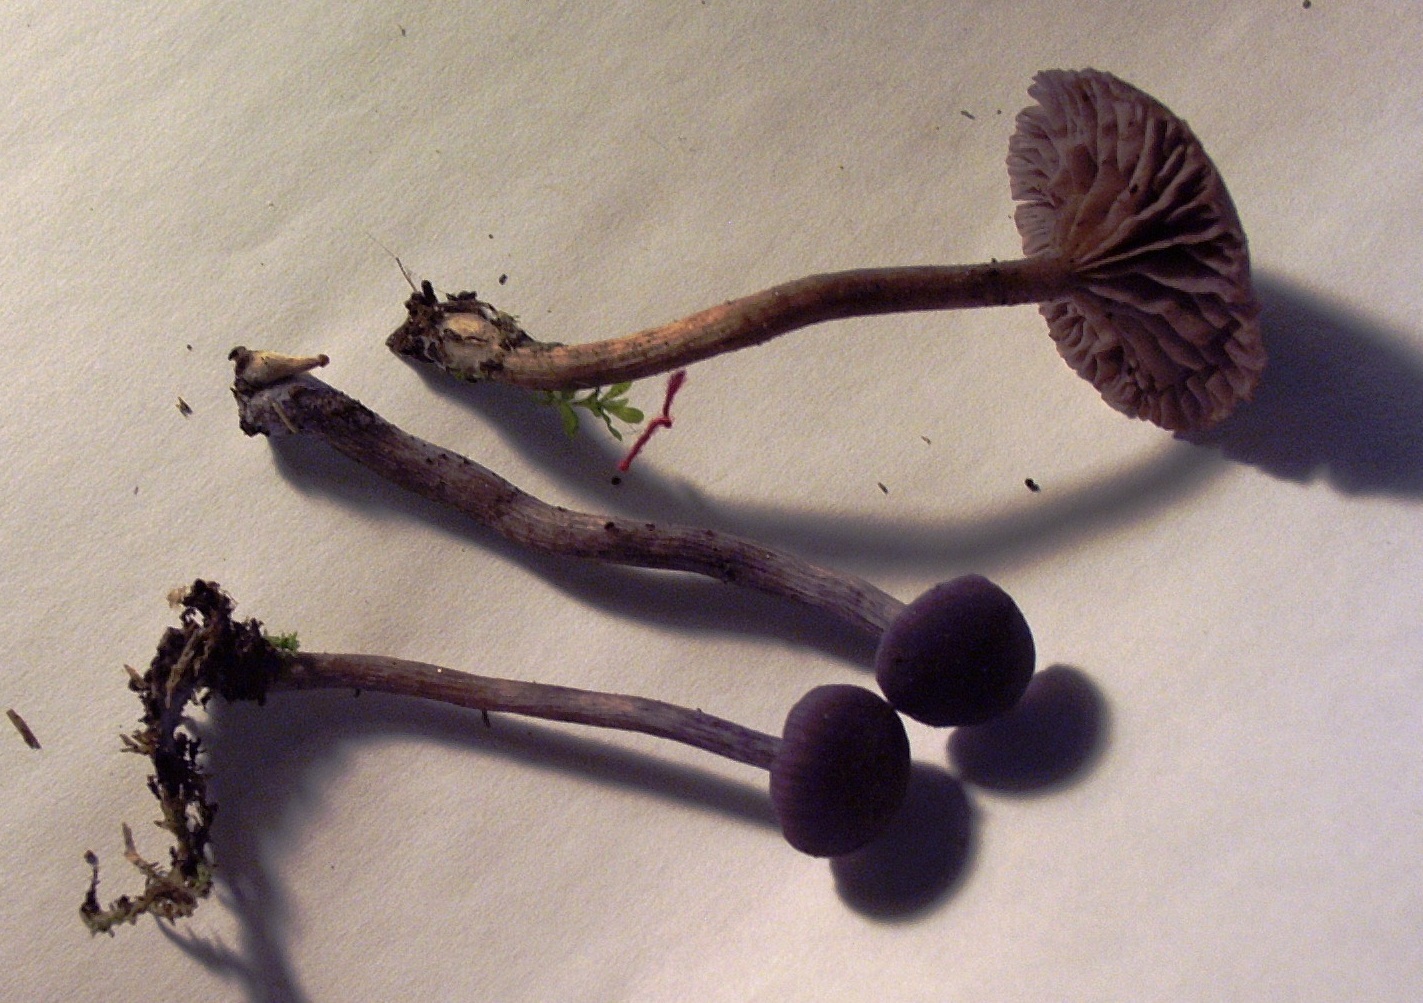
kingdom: Fungi
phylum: Basidiomycota
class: Agaricomycetes
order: Agaricales
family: Hydnangiaceae
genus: Laccaria
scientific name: Laccaria amethystina
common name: Amethyst deceiver
